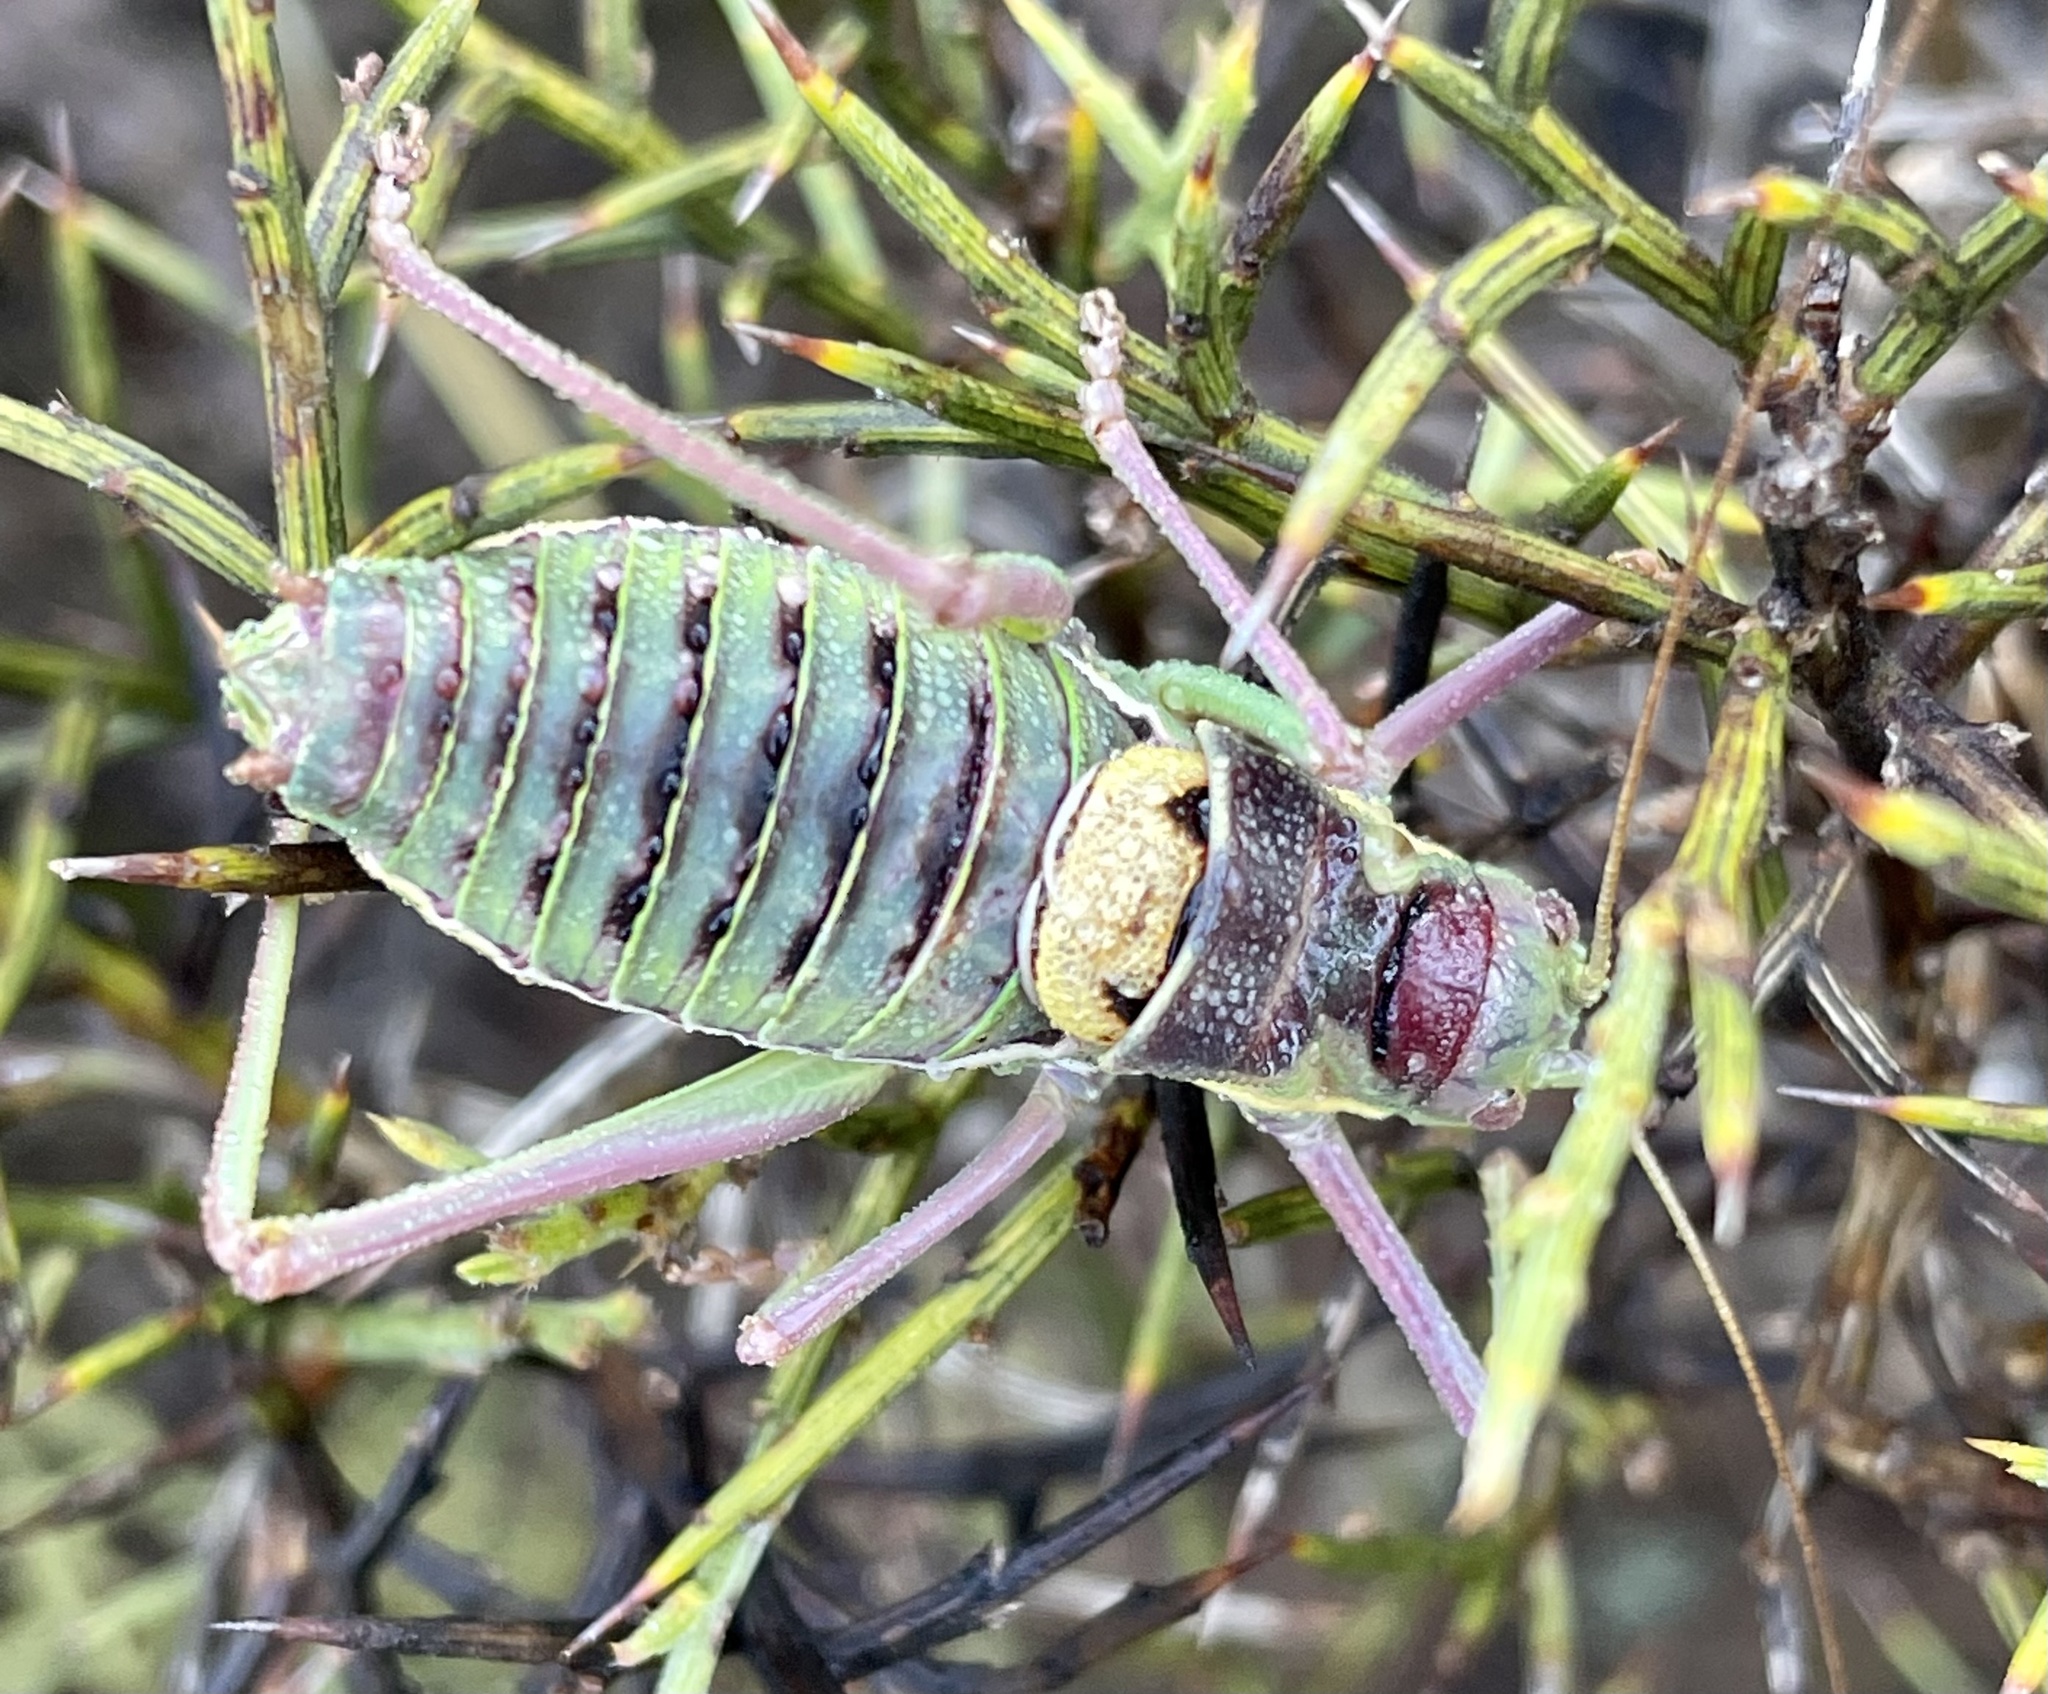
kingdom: Animalia
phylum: Arthropoda
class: Insecta
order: Orthoptera
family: Tettigoniidae
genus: Ephippiger
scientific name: Ephippiger diurnus
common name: Western saddle bush-cricket
